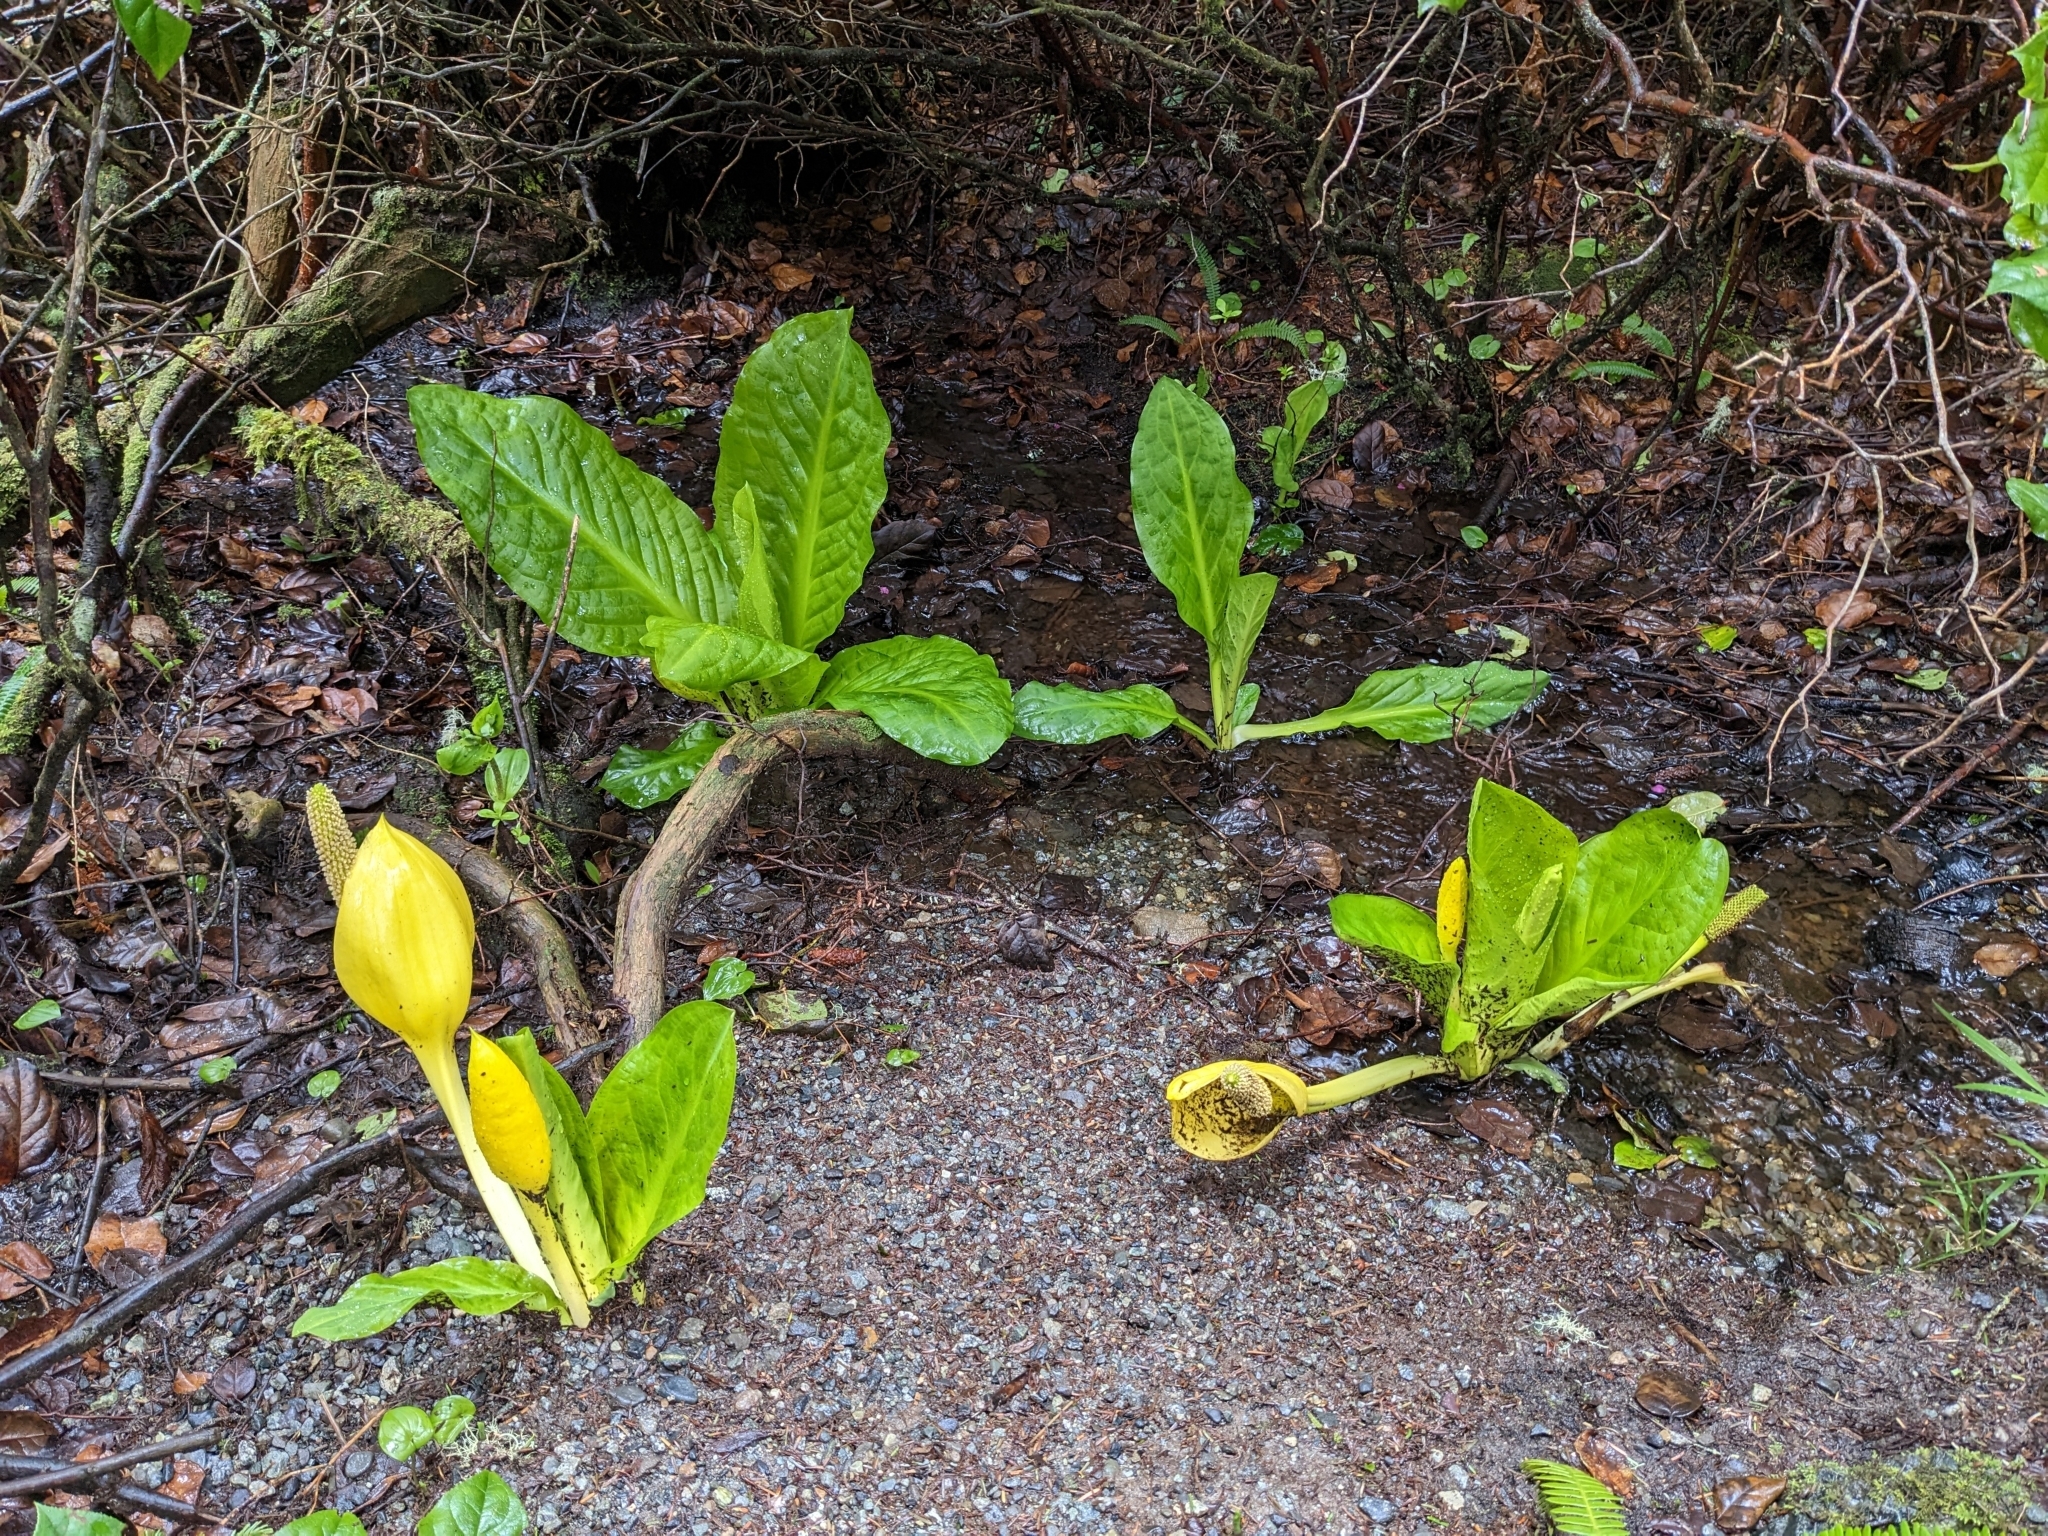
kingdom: Plantae
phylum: Tracheophyta
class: Liliopsida
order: Alismatales
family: Araceae
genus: Lysichiton
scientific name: Lysichiton americanus
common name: American skunk cabbage
